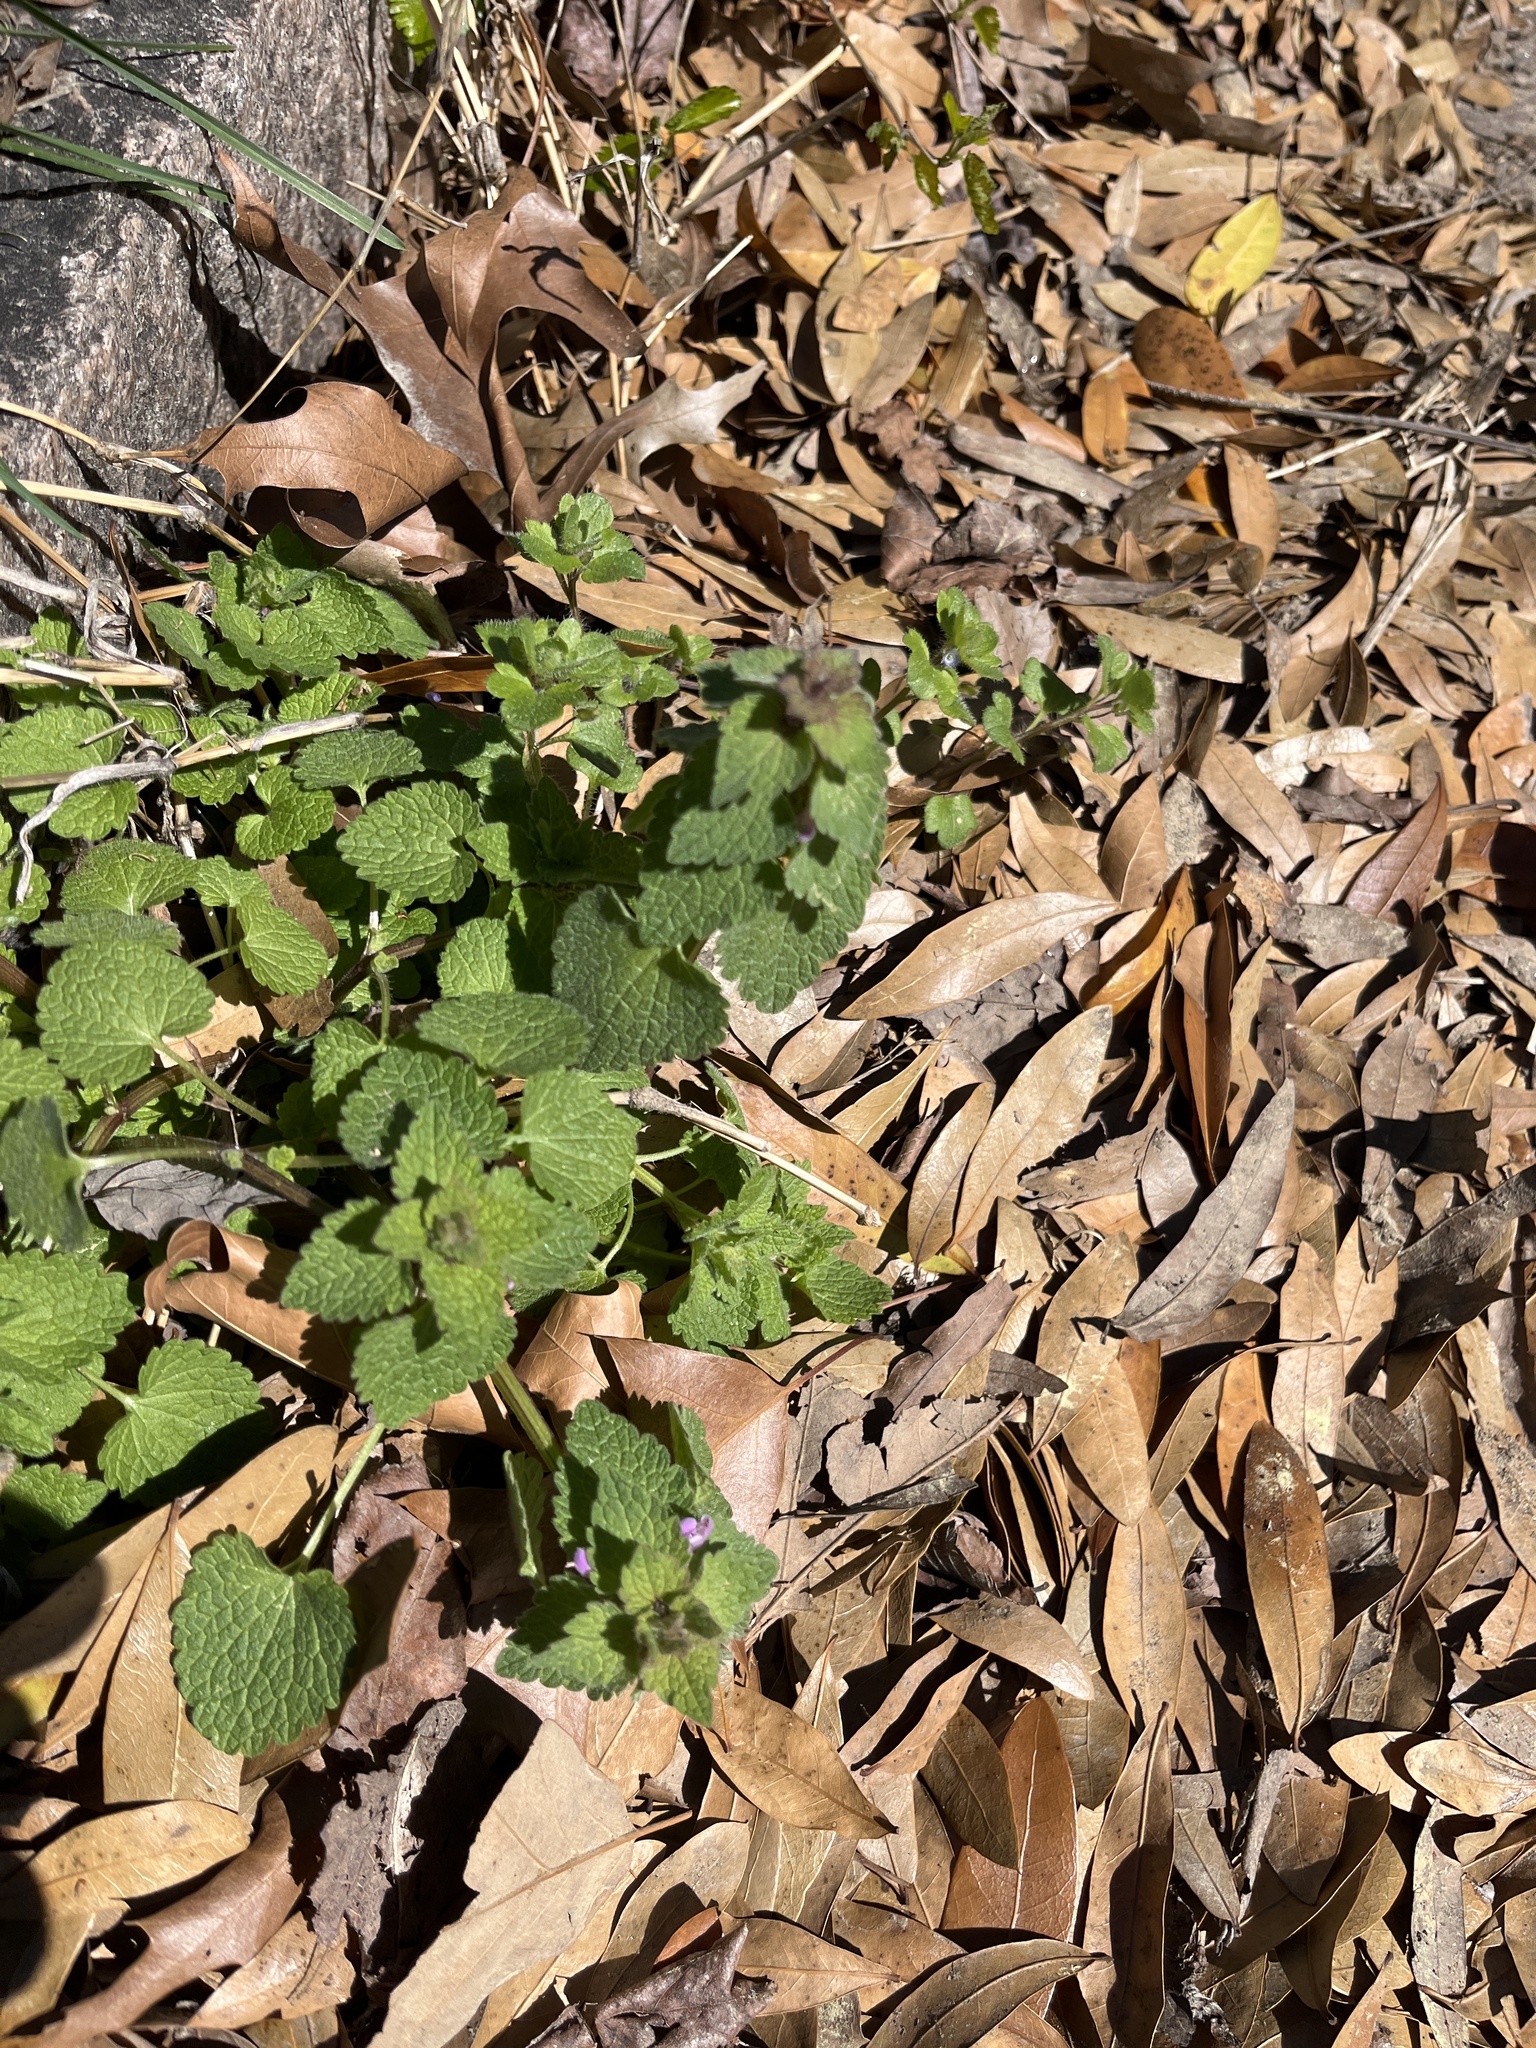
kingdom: Plantae
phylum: Tracheophyta
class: Magnoliopsida
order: Lamiales
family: Lamiaceae
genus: Lamium
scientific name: Lamium purpureum
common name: Red dead-nettle
